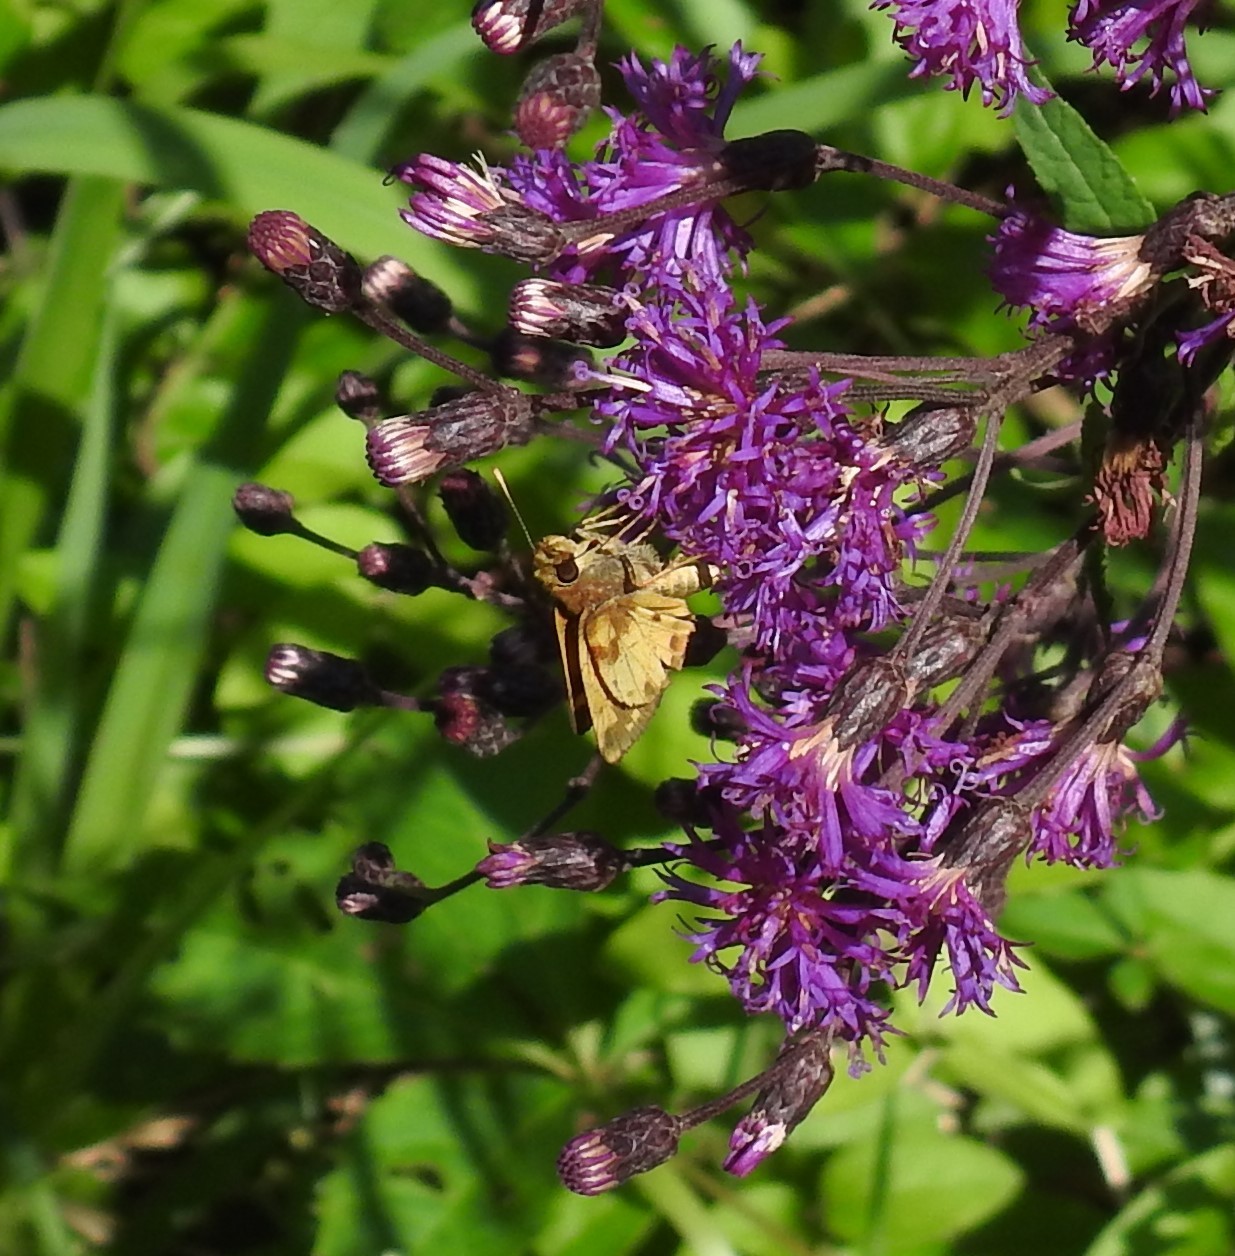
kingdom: Animalia
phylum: Arthropoda
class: Insecta
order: Lepidoptera
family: Hesperiidae
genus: Lon
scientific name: Lon zabulon
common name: Zabulon skipper
